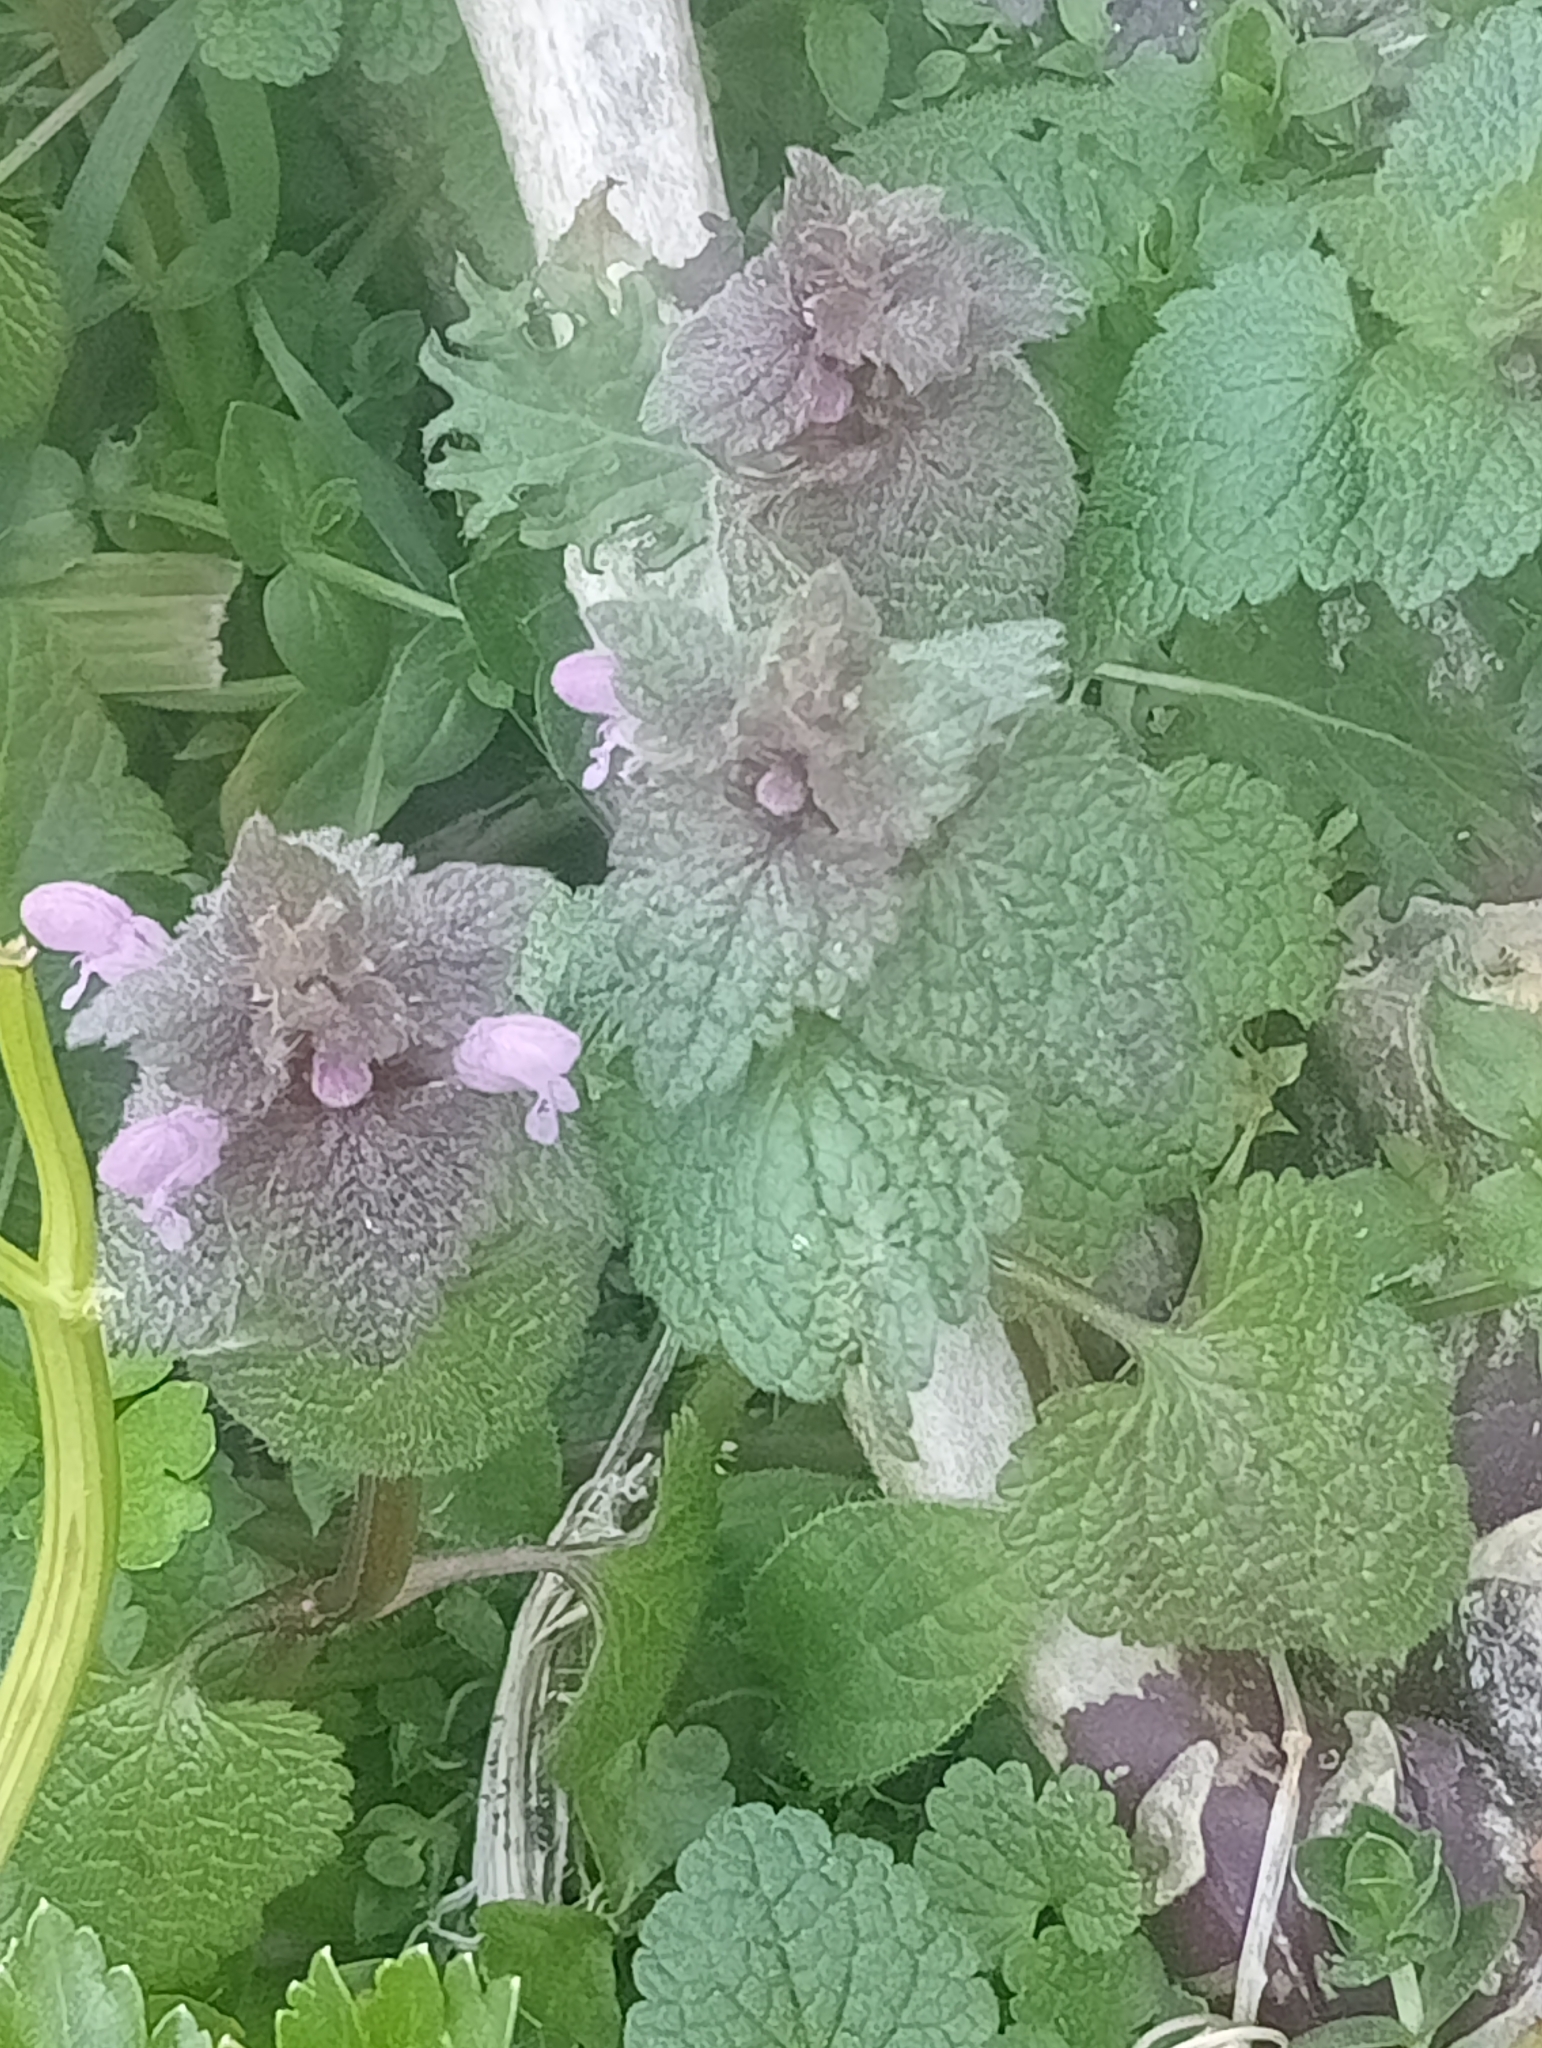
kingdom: Plantae
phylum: Tracheophyta
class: Magnoliopsida
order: Lamiales
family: Lamiaceae
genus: Lamium
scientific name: Lamium purpureum
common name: Red dead-nettle
